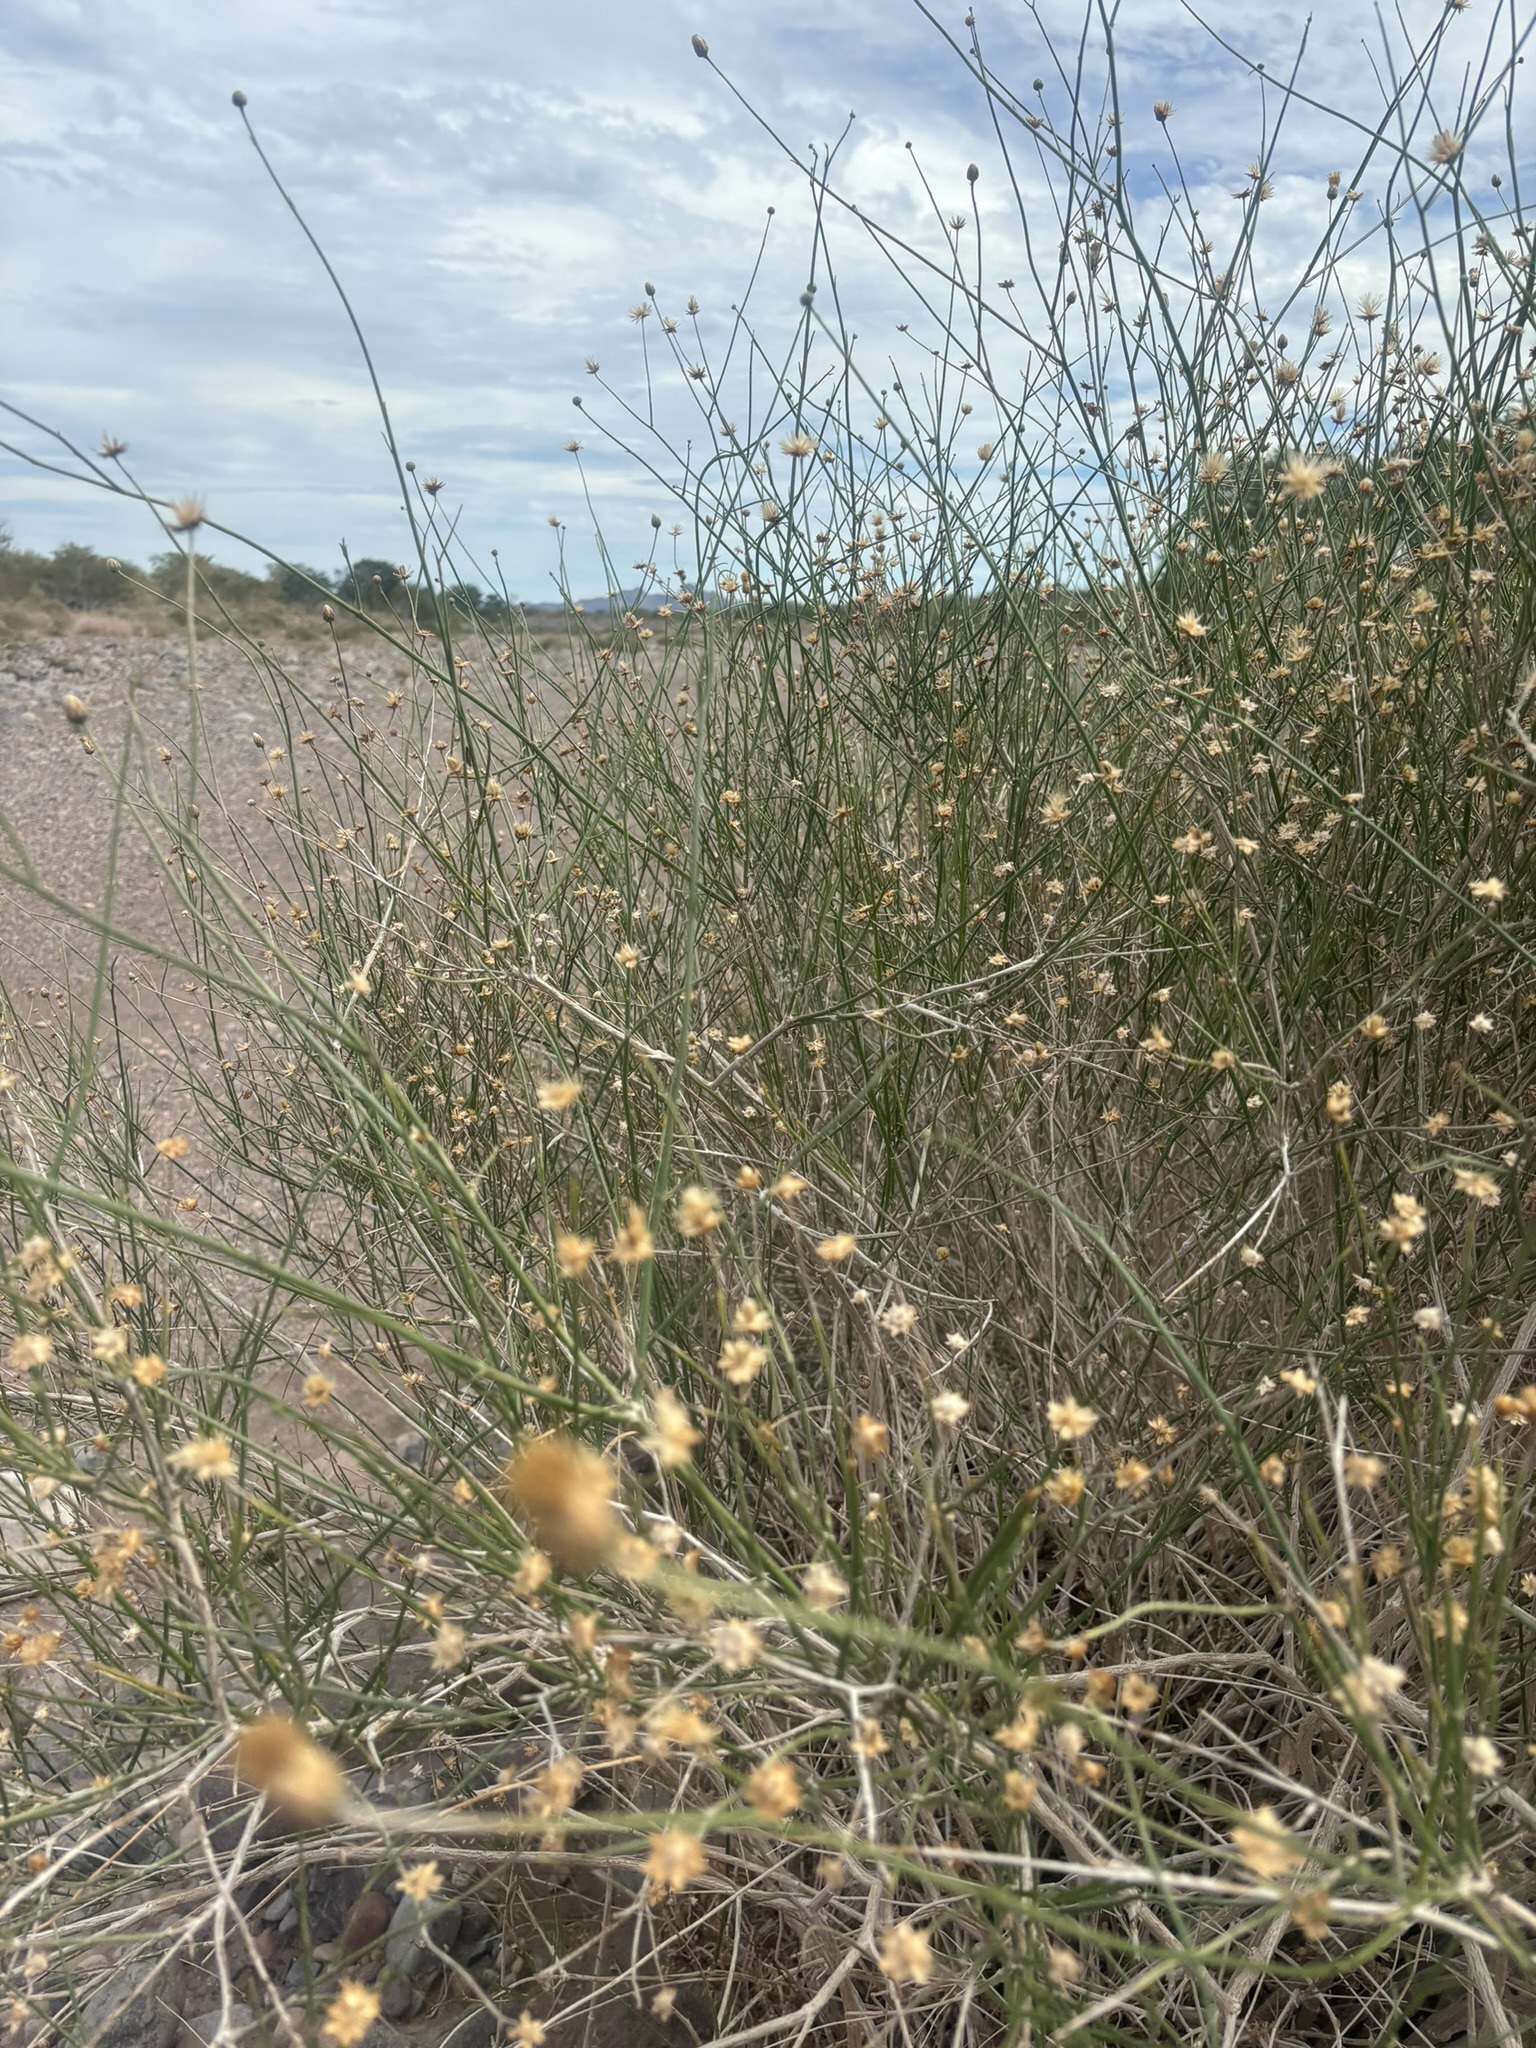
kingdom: Plantae
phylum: Tracheophyta
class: Magnoliopsida
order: Asterales
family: Asteraceae
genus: Bebbia
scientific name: Bebbia juncea
